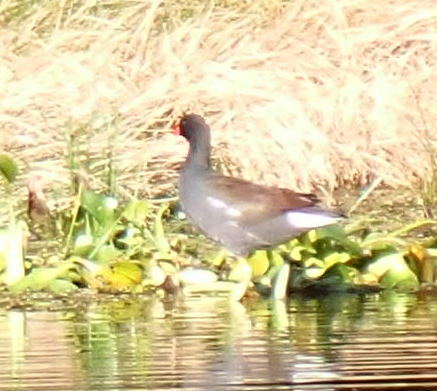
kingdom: Animalia
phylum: Chordata
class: Aves
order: Gruiformes
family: Rallidae
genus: Gallinula
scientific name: Gallinula chloropus
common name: Common moorhen
